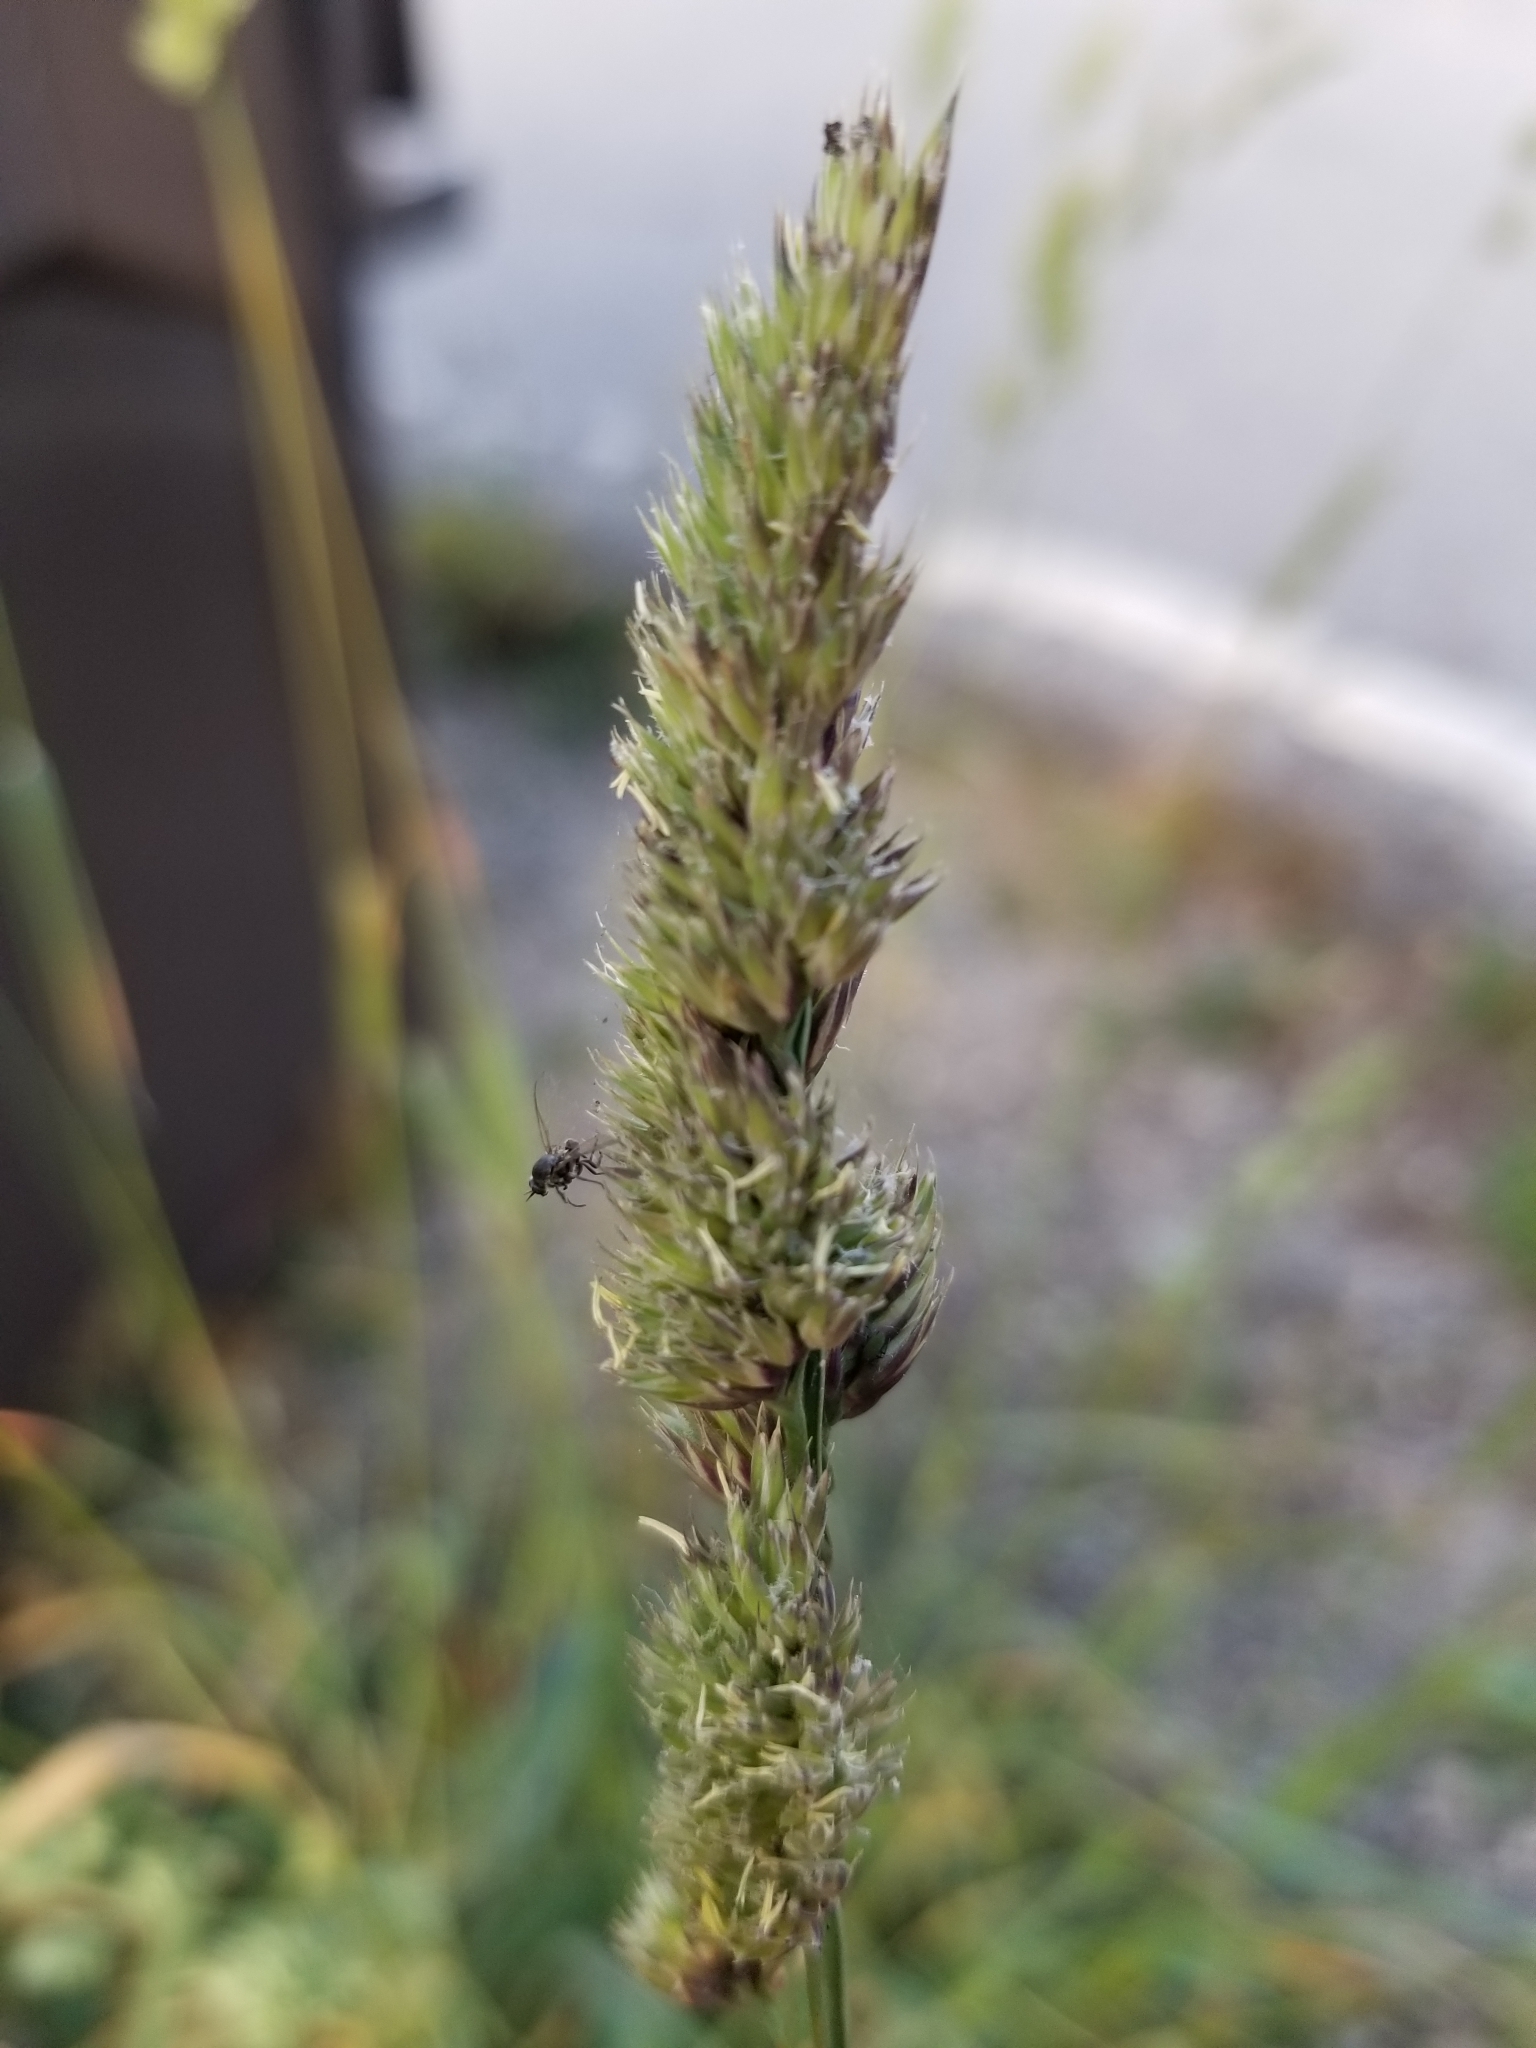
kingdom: Plantae
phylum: Tracheophyta
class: Liliopsida
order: Poales
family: Poaceae
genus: Dactylis
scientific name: Dactylis glomerata
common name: Orchardgrass
